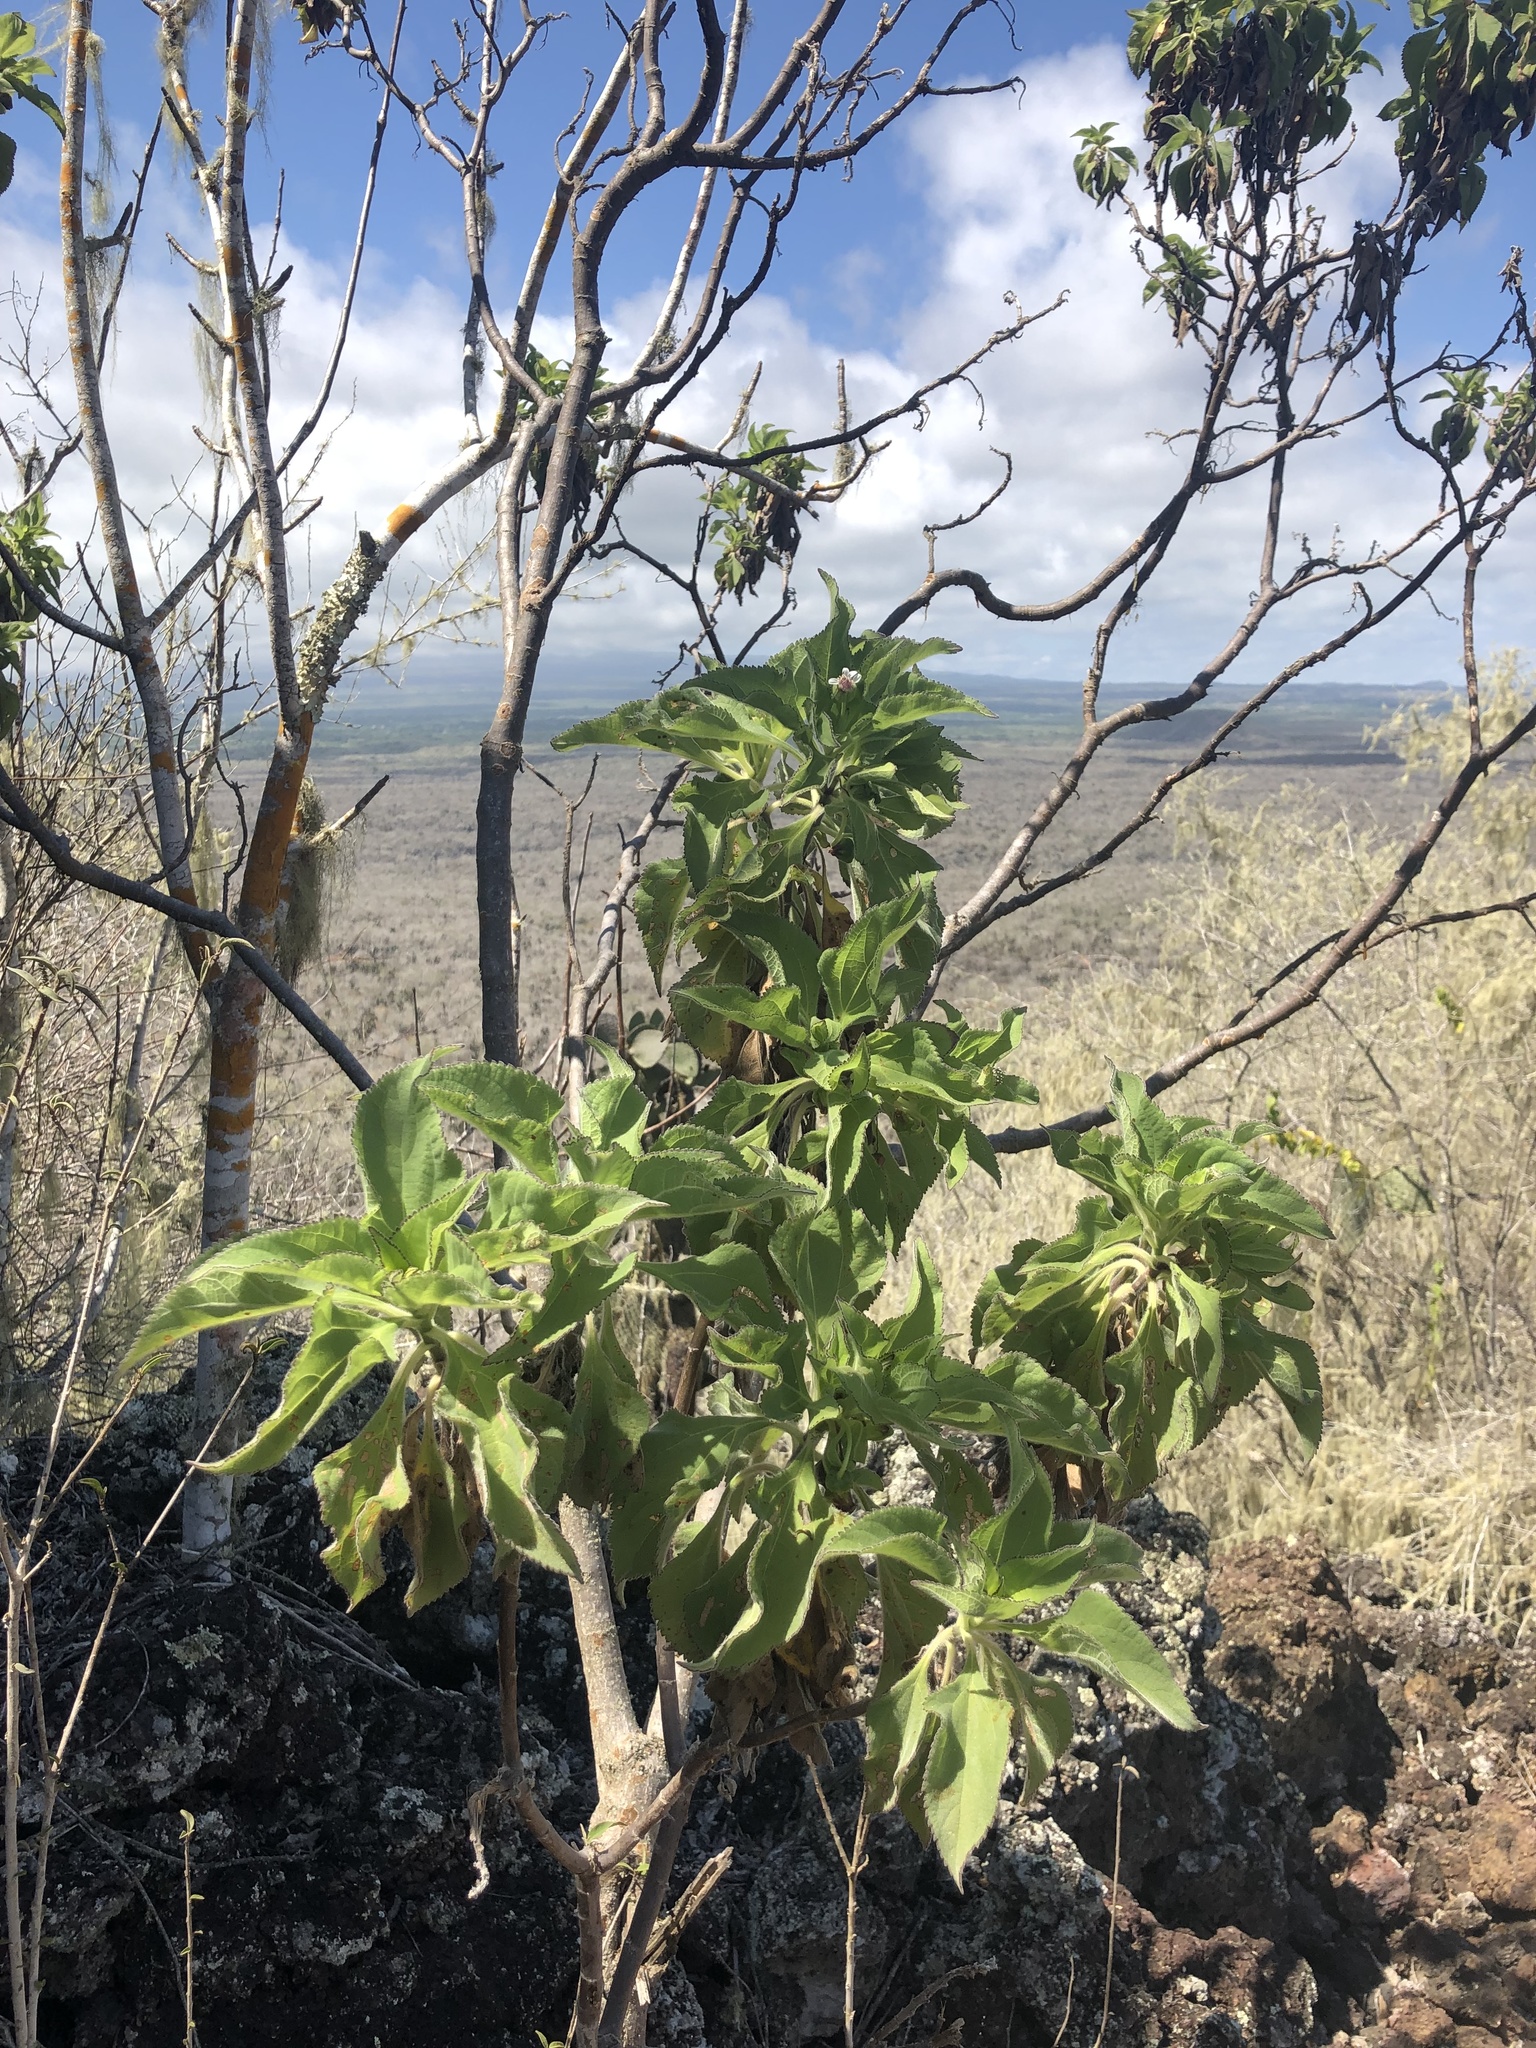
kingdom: Plantae
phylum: Tracheophyta
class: Magnoliopsida
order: Asterales
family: Asteraceae
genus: Scalesia
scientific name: Scalesia affinis
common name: Radiate-headed scalesia
